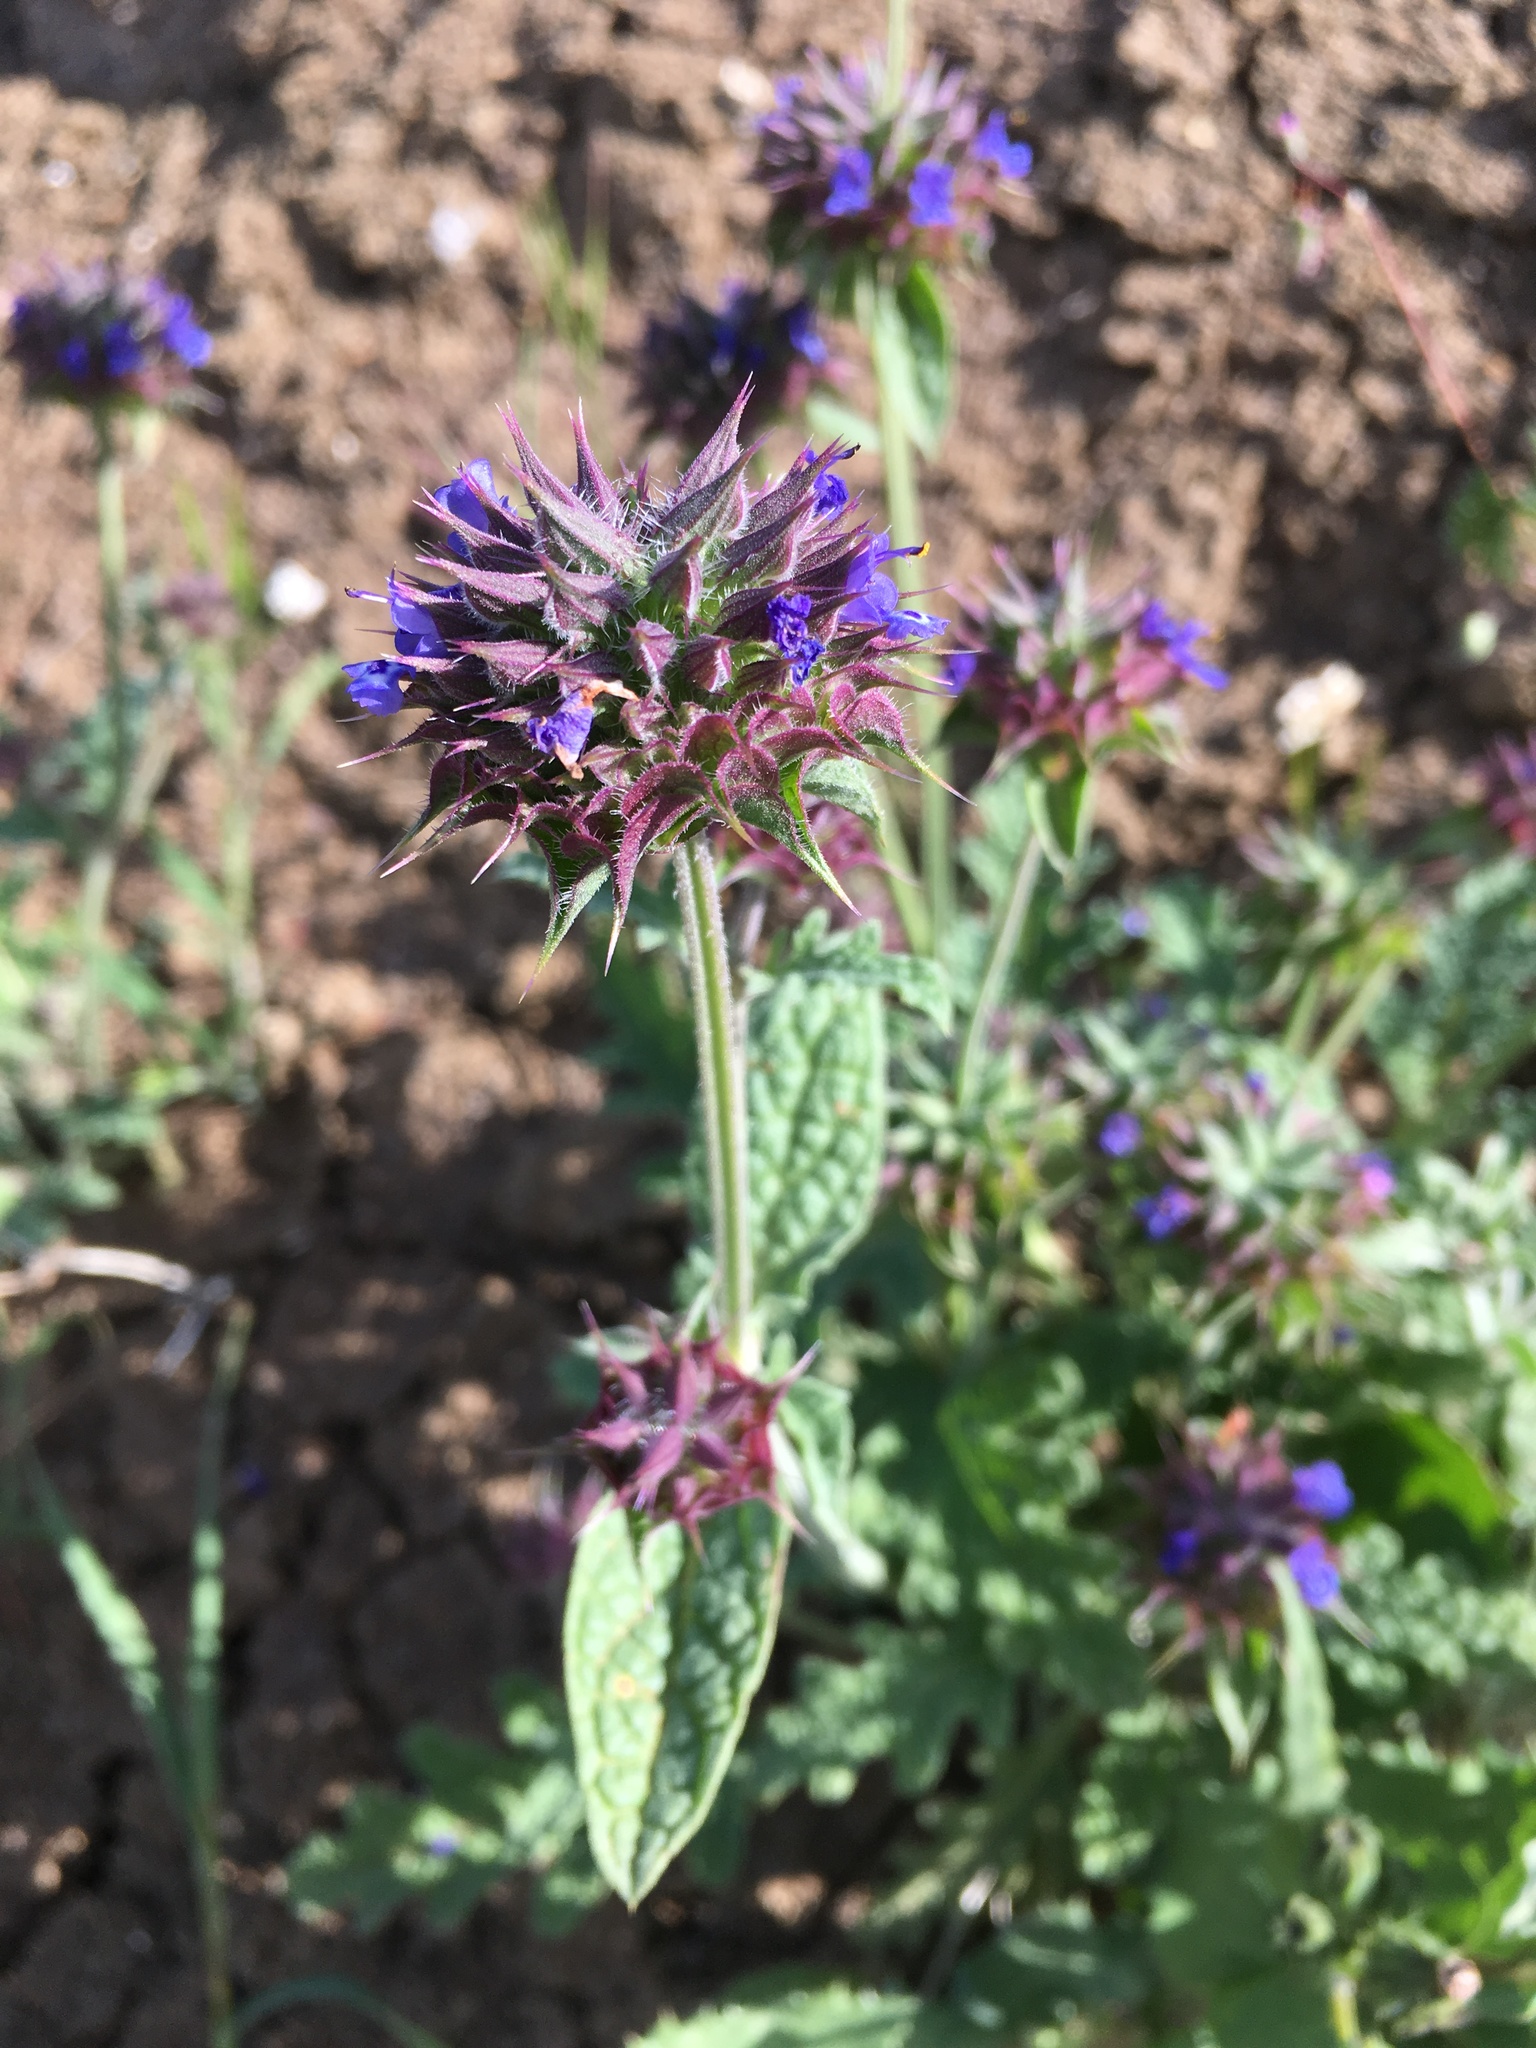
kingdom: Plantae
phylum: Tracheophyta
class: Magnoliopsida
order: Lamiales
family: Lamiaceae
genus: Salvia
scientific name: Salvia columbariae
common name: Chia
